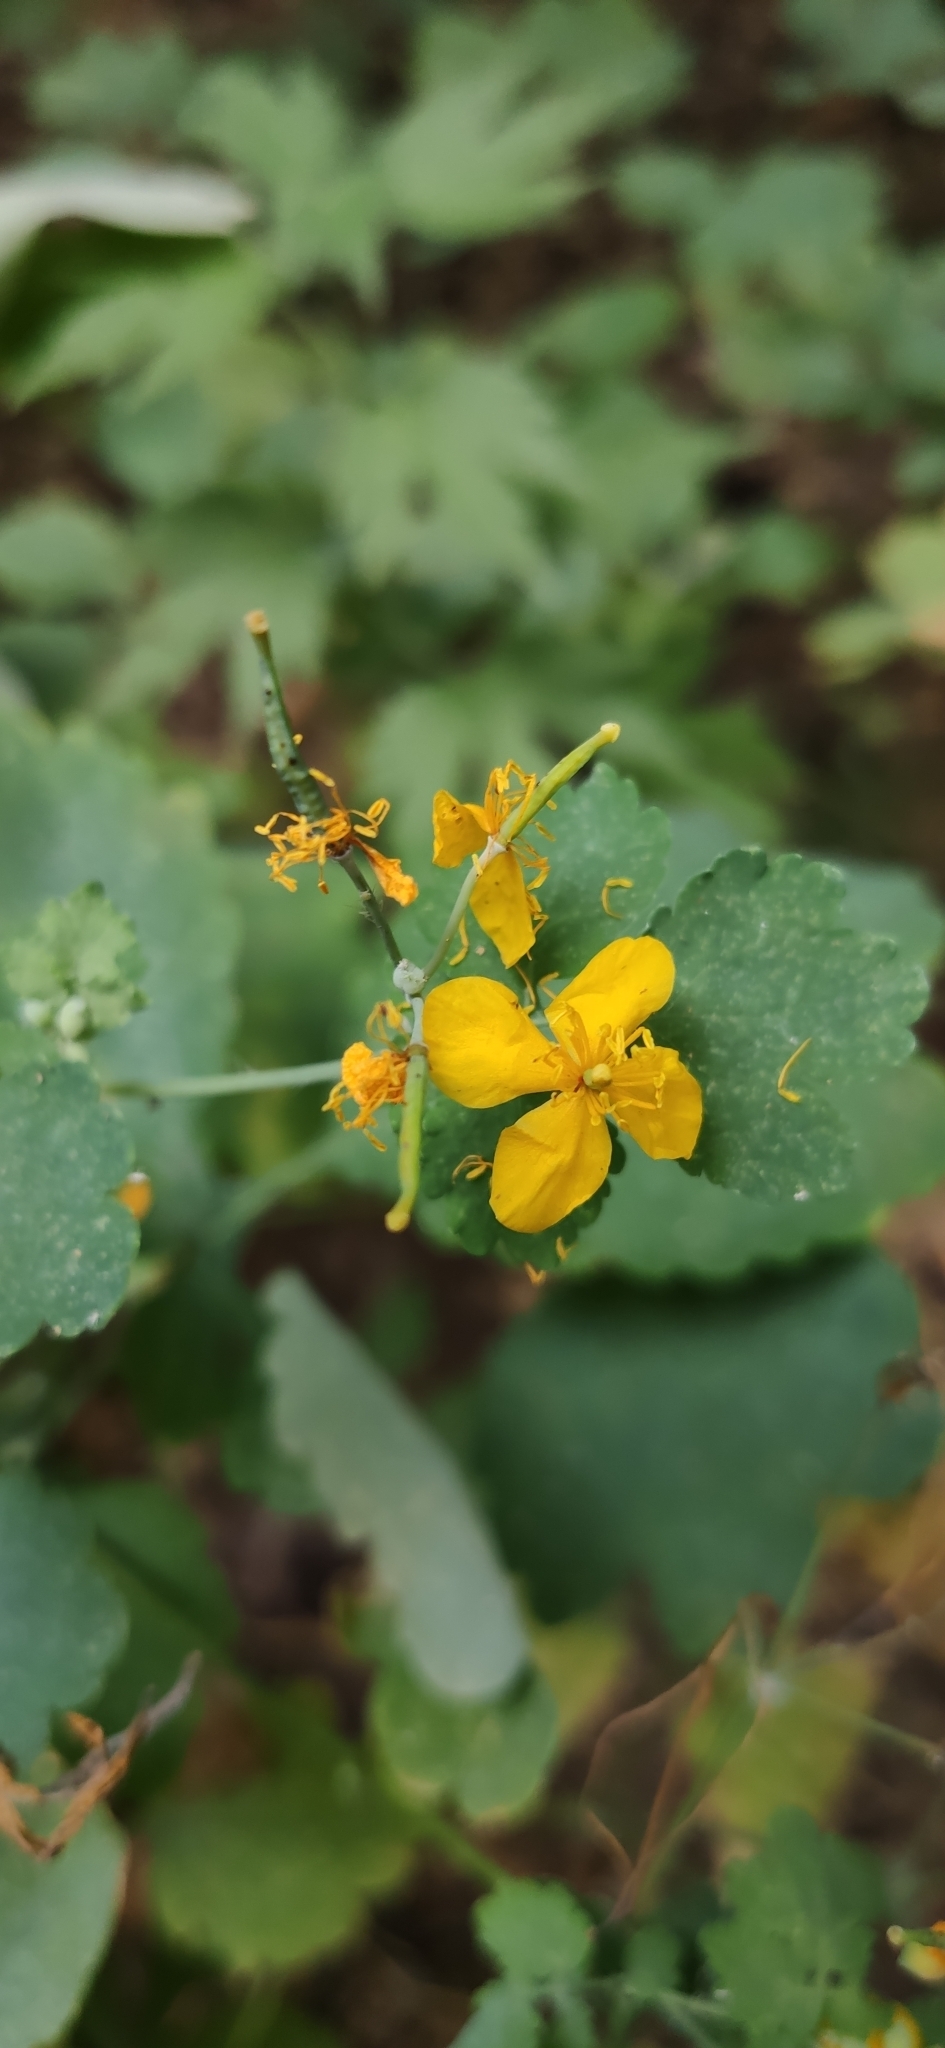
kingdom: Plantae
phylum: Tracheophyta
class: Magnoliopsida
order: Ranunculales
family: Papaveraceae
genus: Chelidonium
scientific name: Chelidonium majus
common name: Greater celandine
